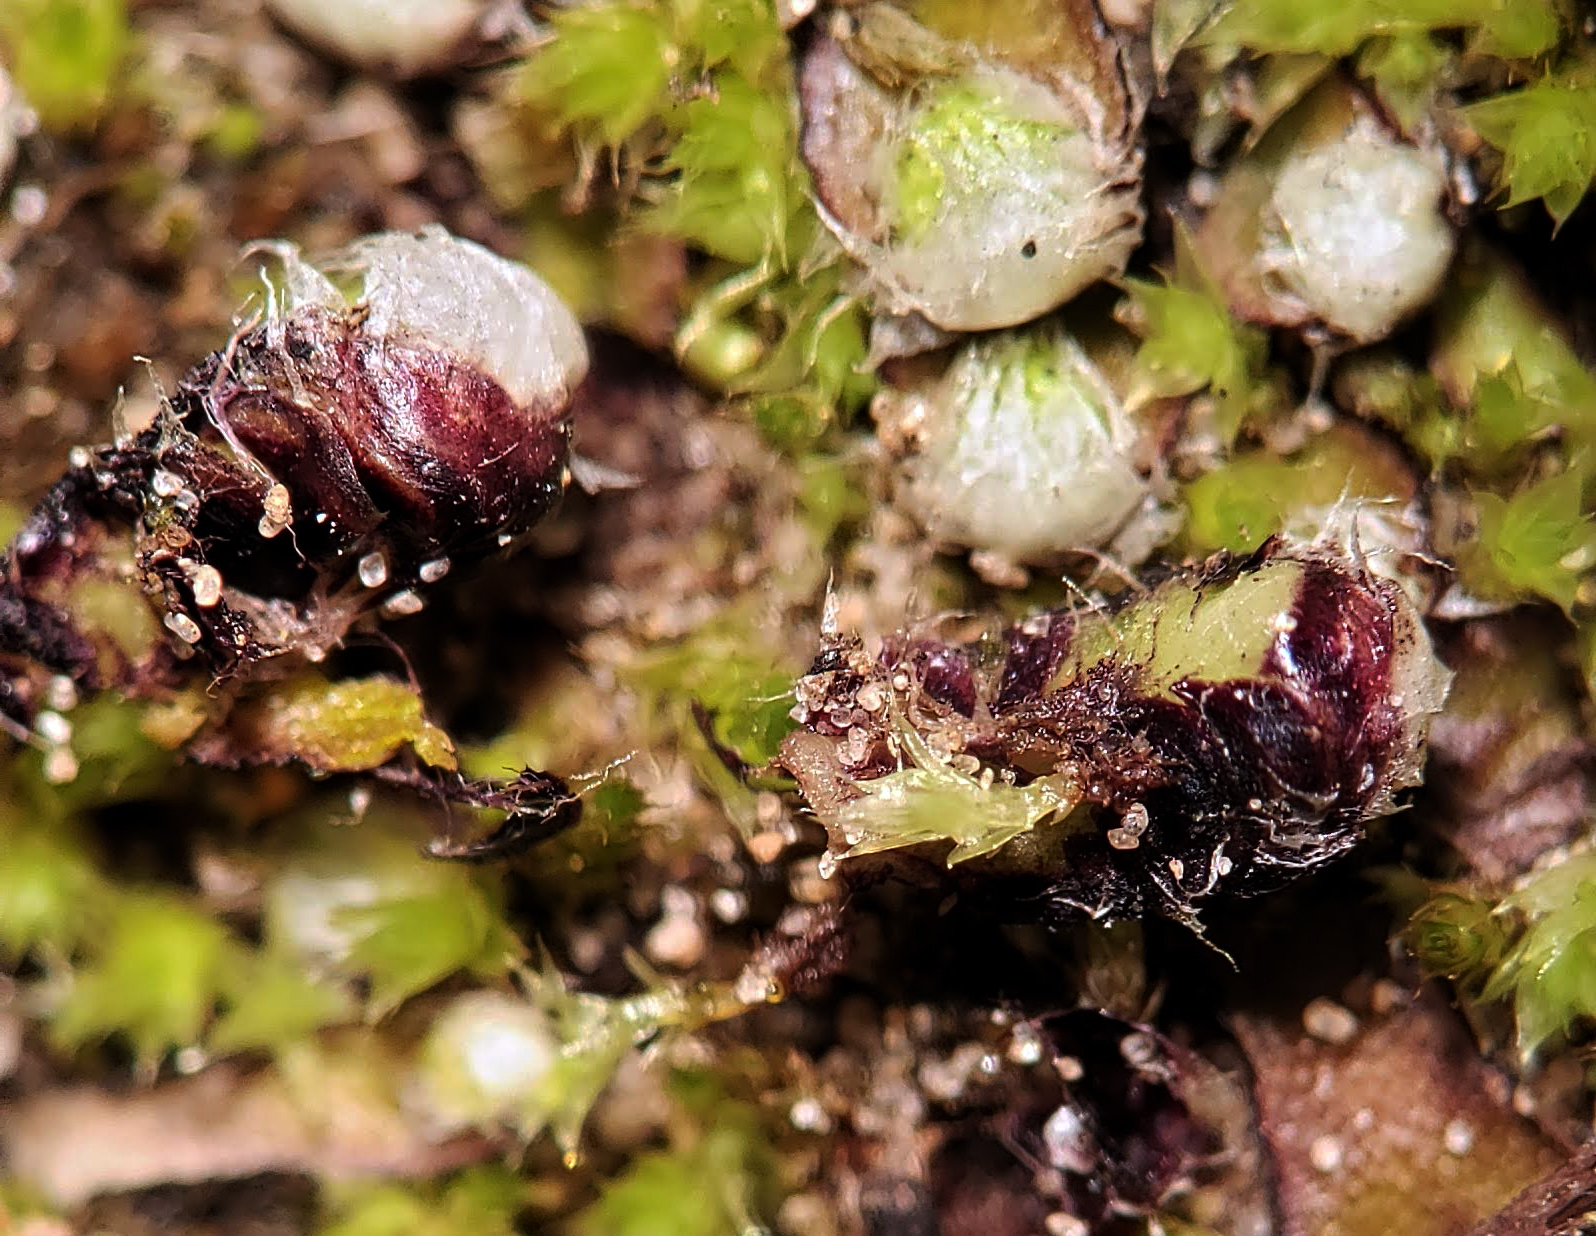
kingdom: Plantae
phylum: Marchantiophyta
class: Marchantiopsida
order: Marchantiales
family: Aytoniaceae
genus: Mannia
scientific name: Mannia fragrans
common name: Fragrant macewort
